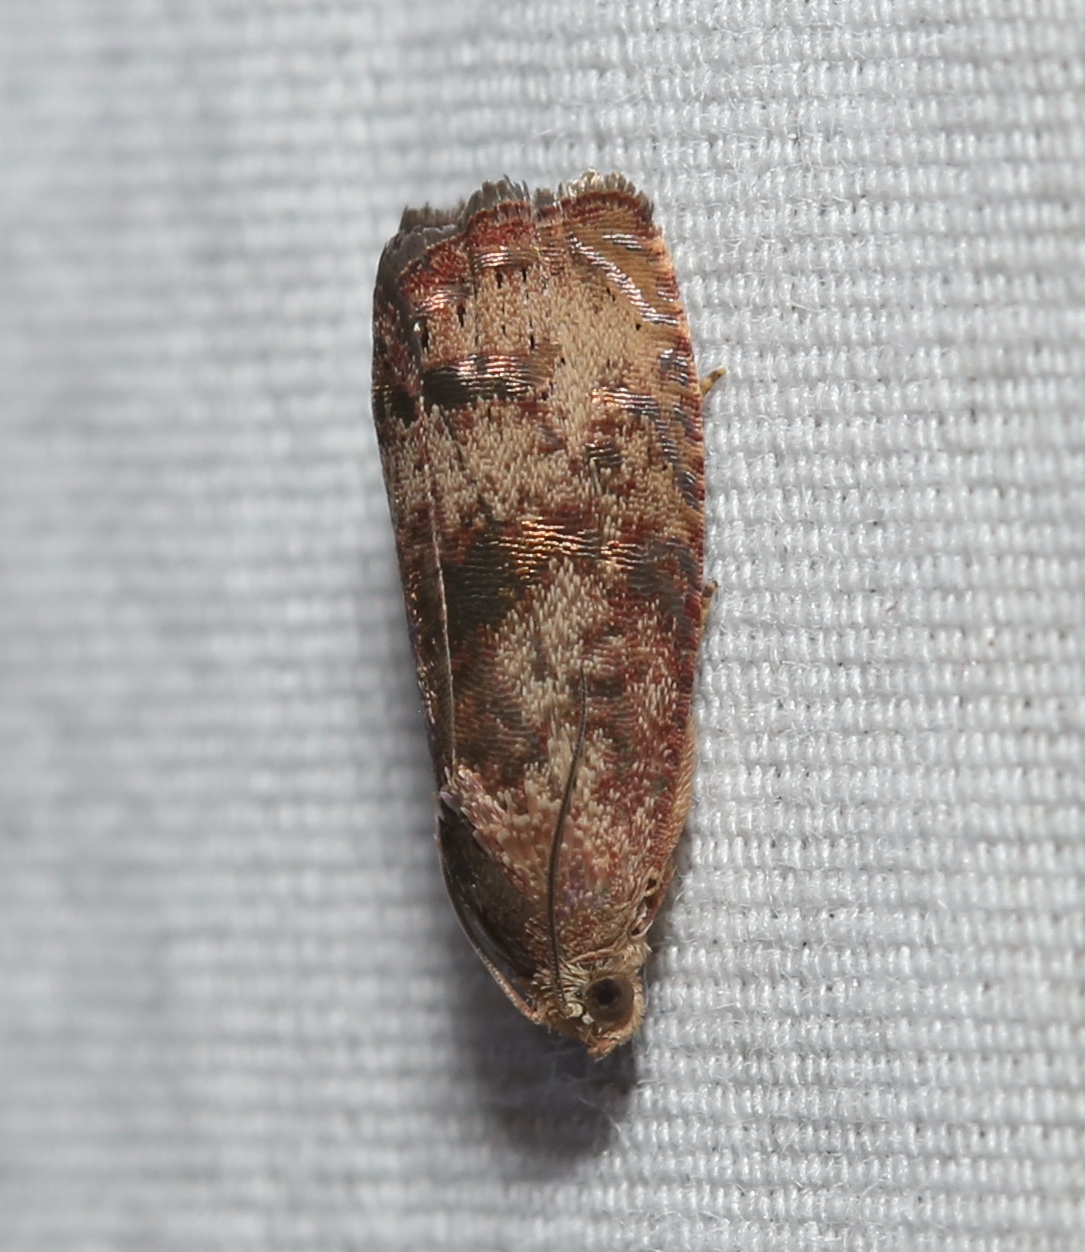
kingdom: Animalia
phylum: Arthropoda
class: Insecta
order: Lepidoptera
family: Tortricidae
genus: Cydia
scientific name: Cydia latiferreana
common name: Filbertworm moth
